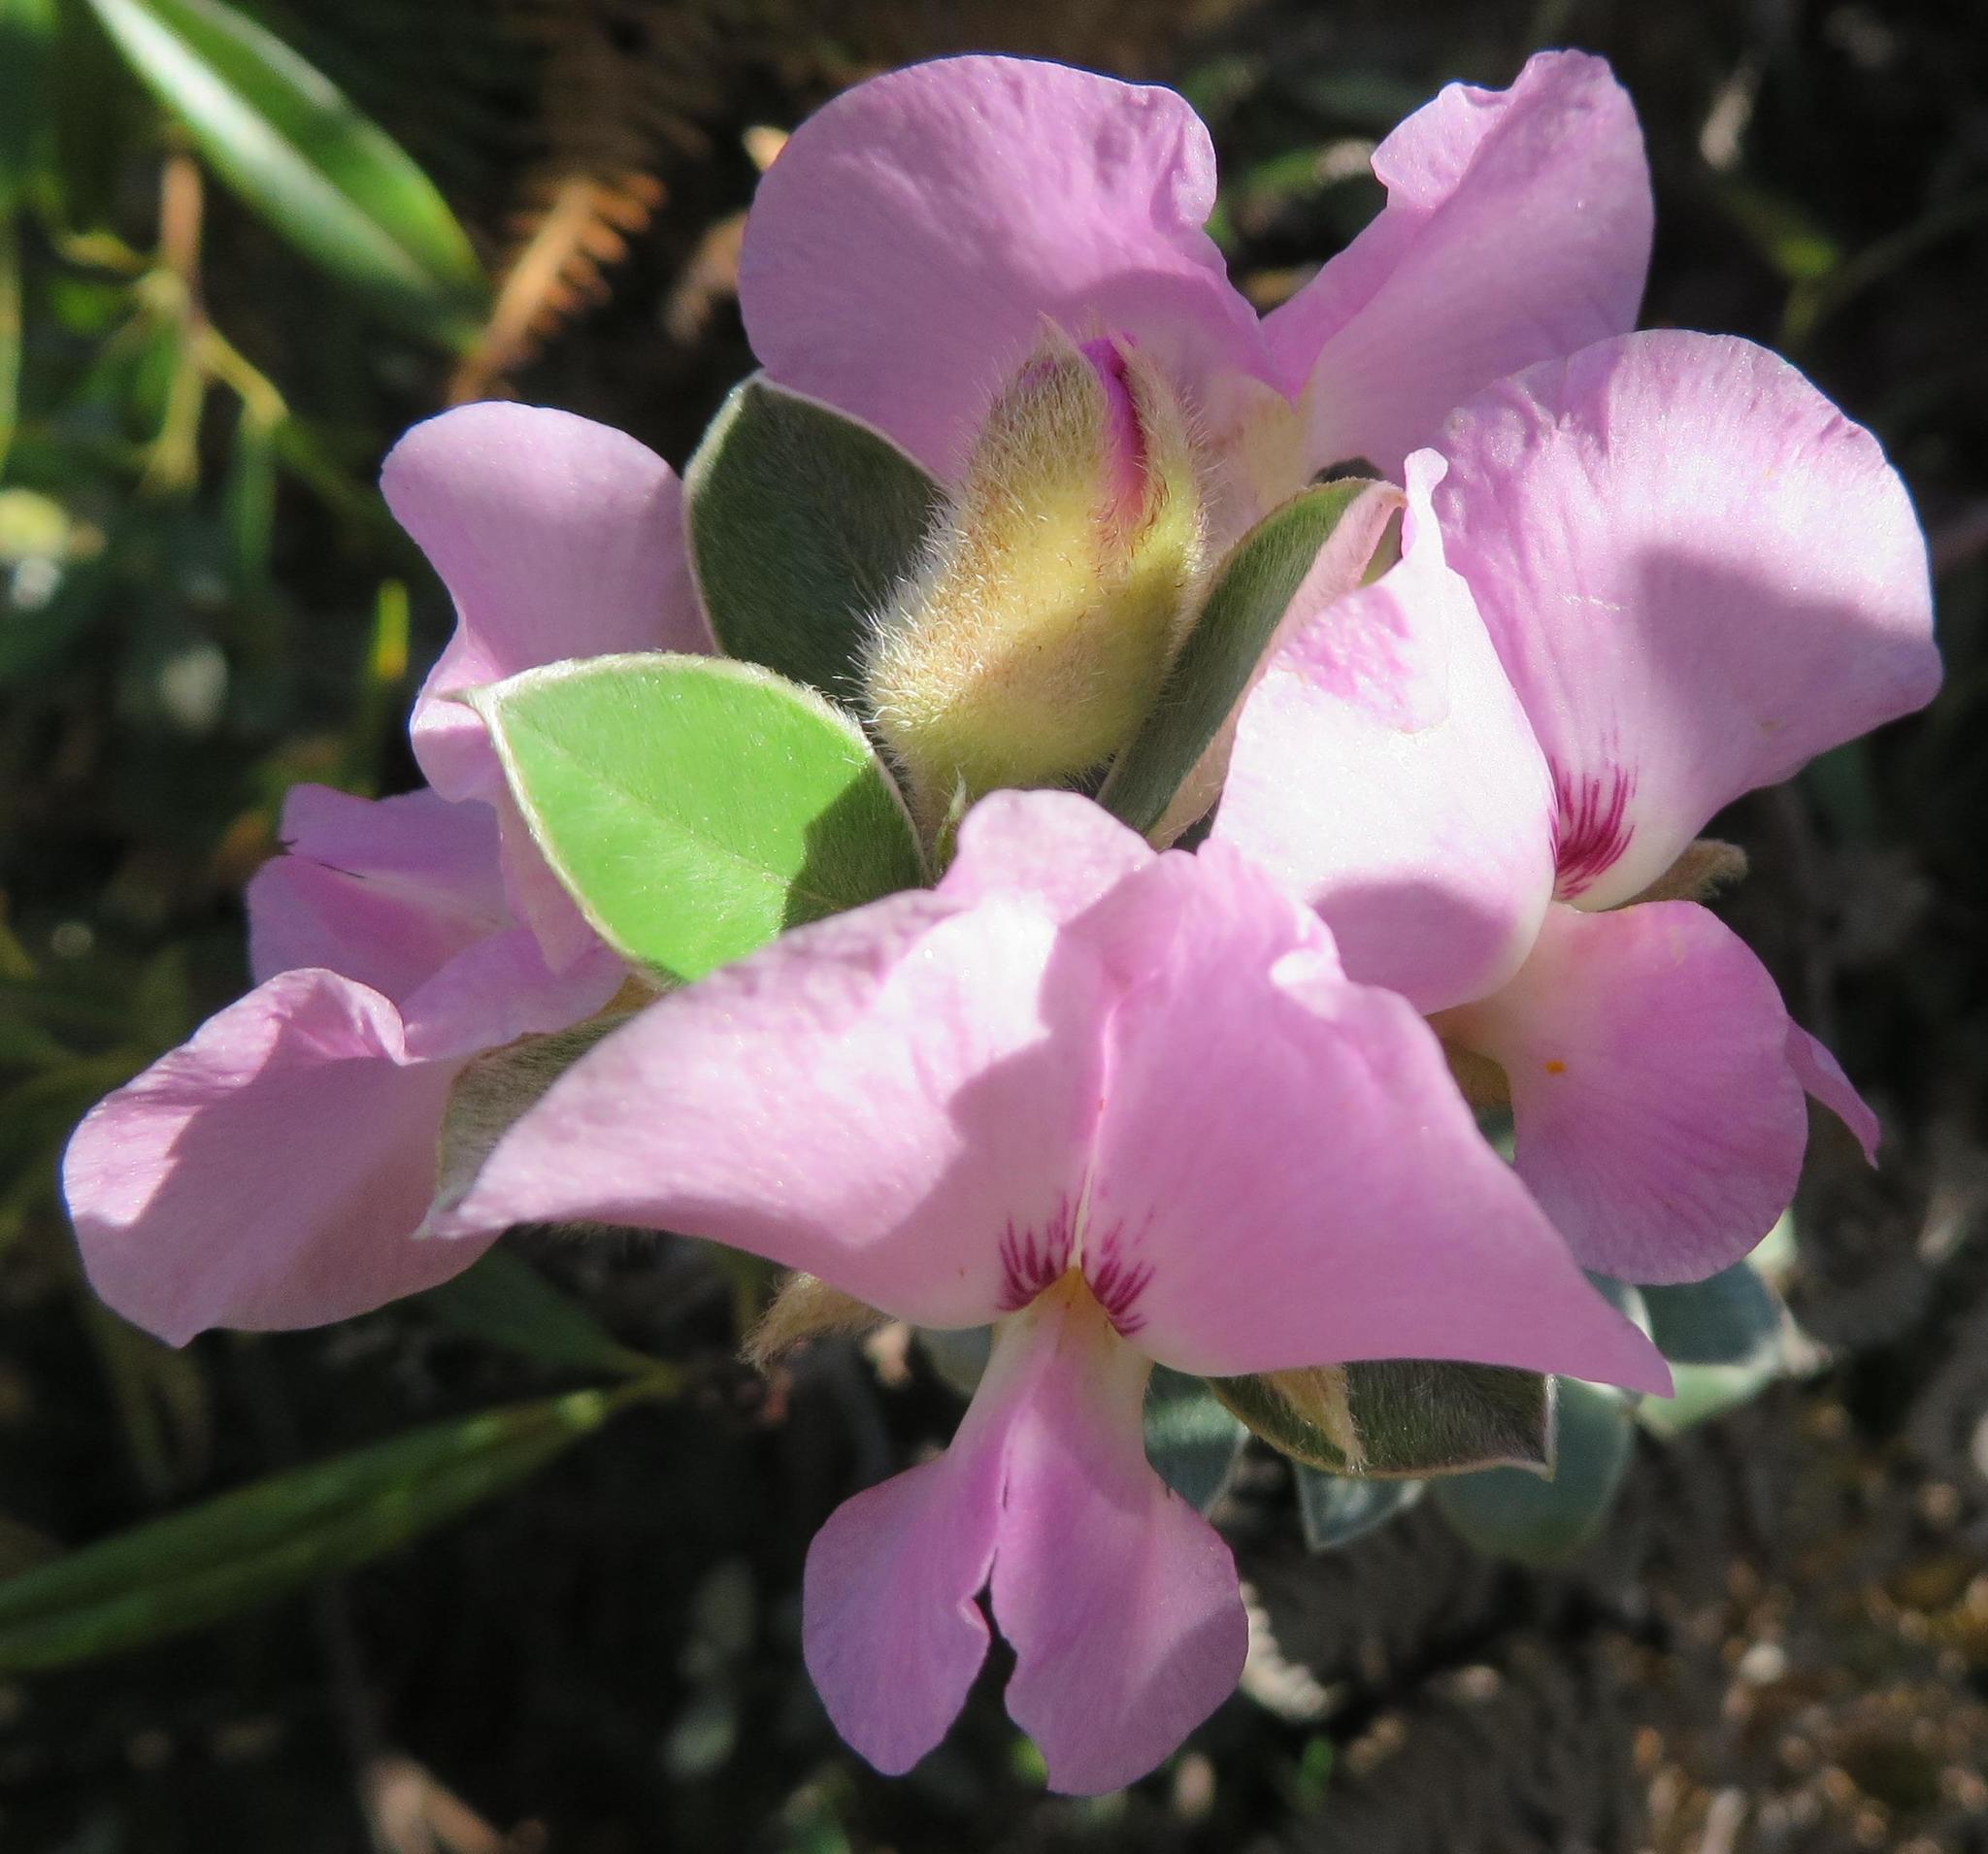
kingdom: Plantae
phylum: Tracheophyta
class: Magnoliopsida
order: Fabales
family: Fabaceae
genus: Podalyria
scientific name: Podalyria variabilis
